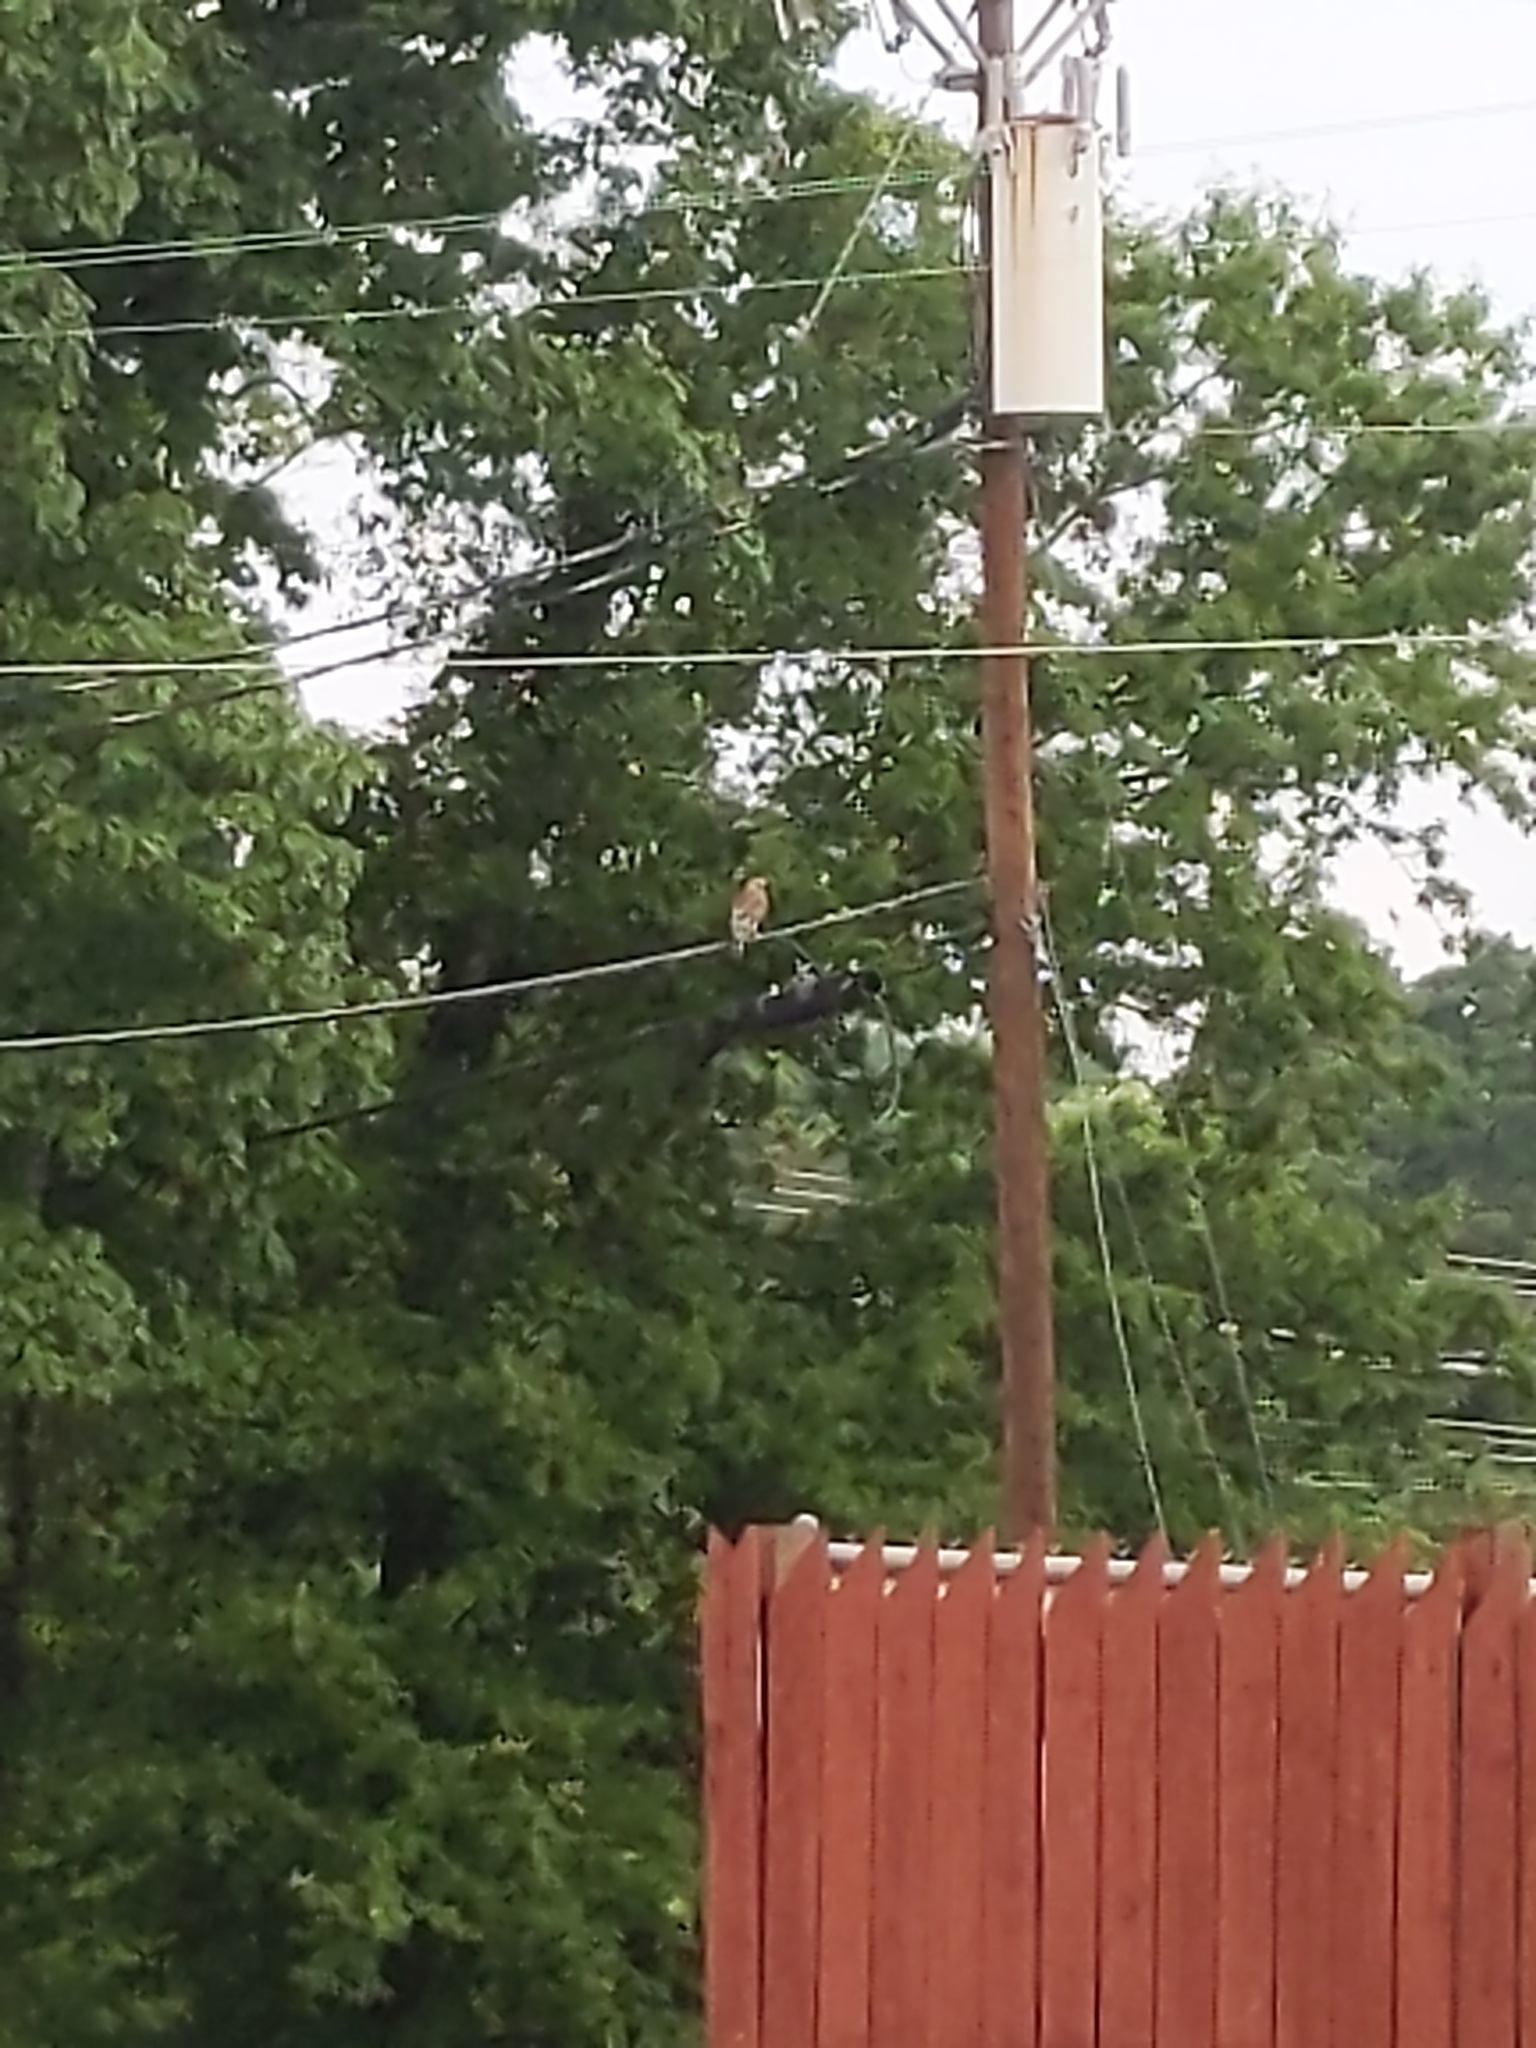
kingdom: Animalia
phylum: Chordata
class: Aves
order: Accipitriformes
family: Accipitridae
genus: Buteo
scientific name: Buteo lineatus
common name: Red-shouldered hawk
